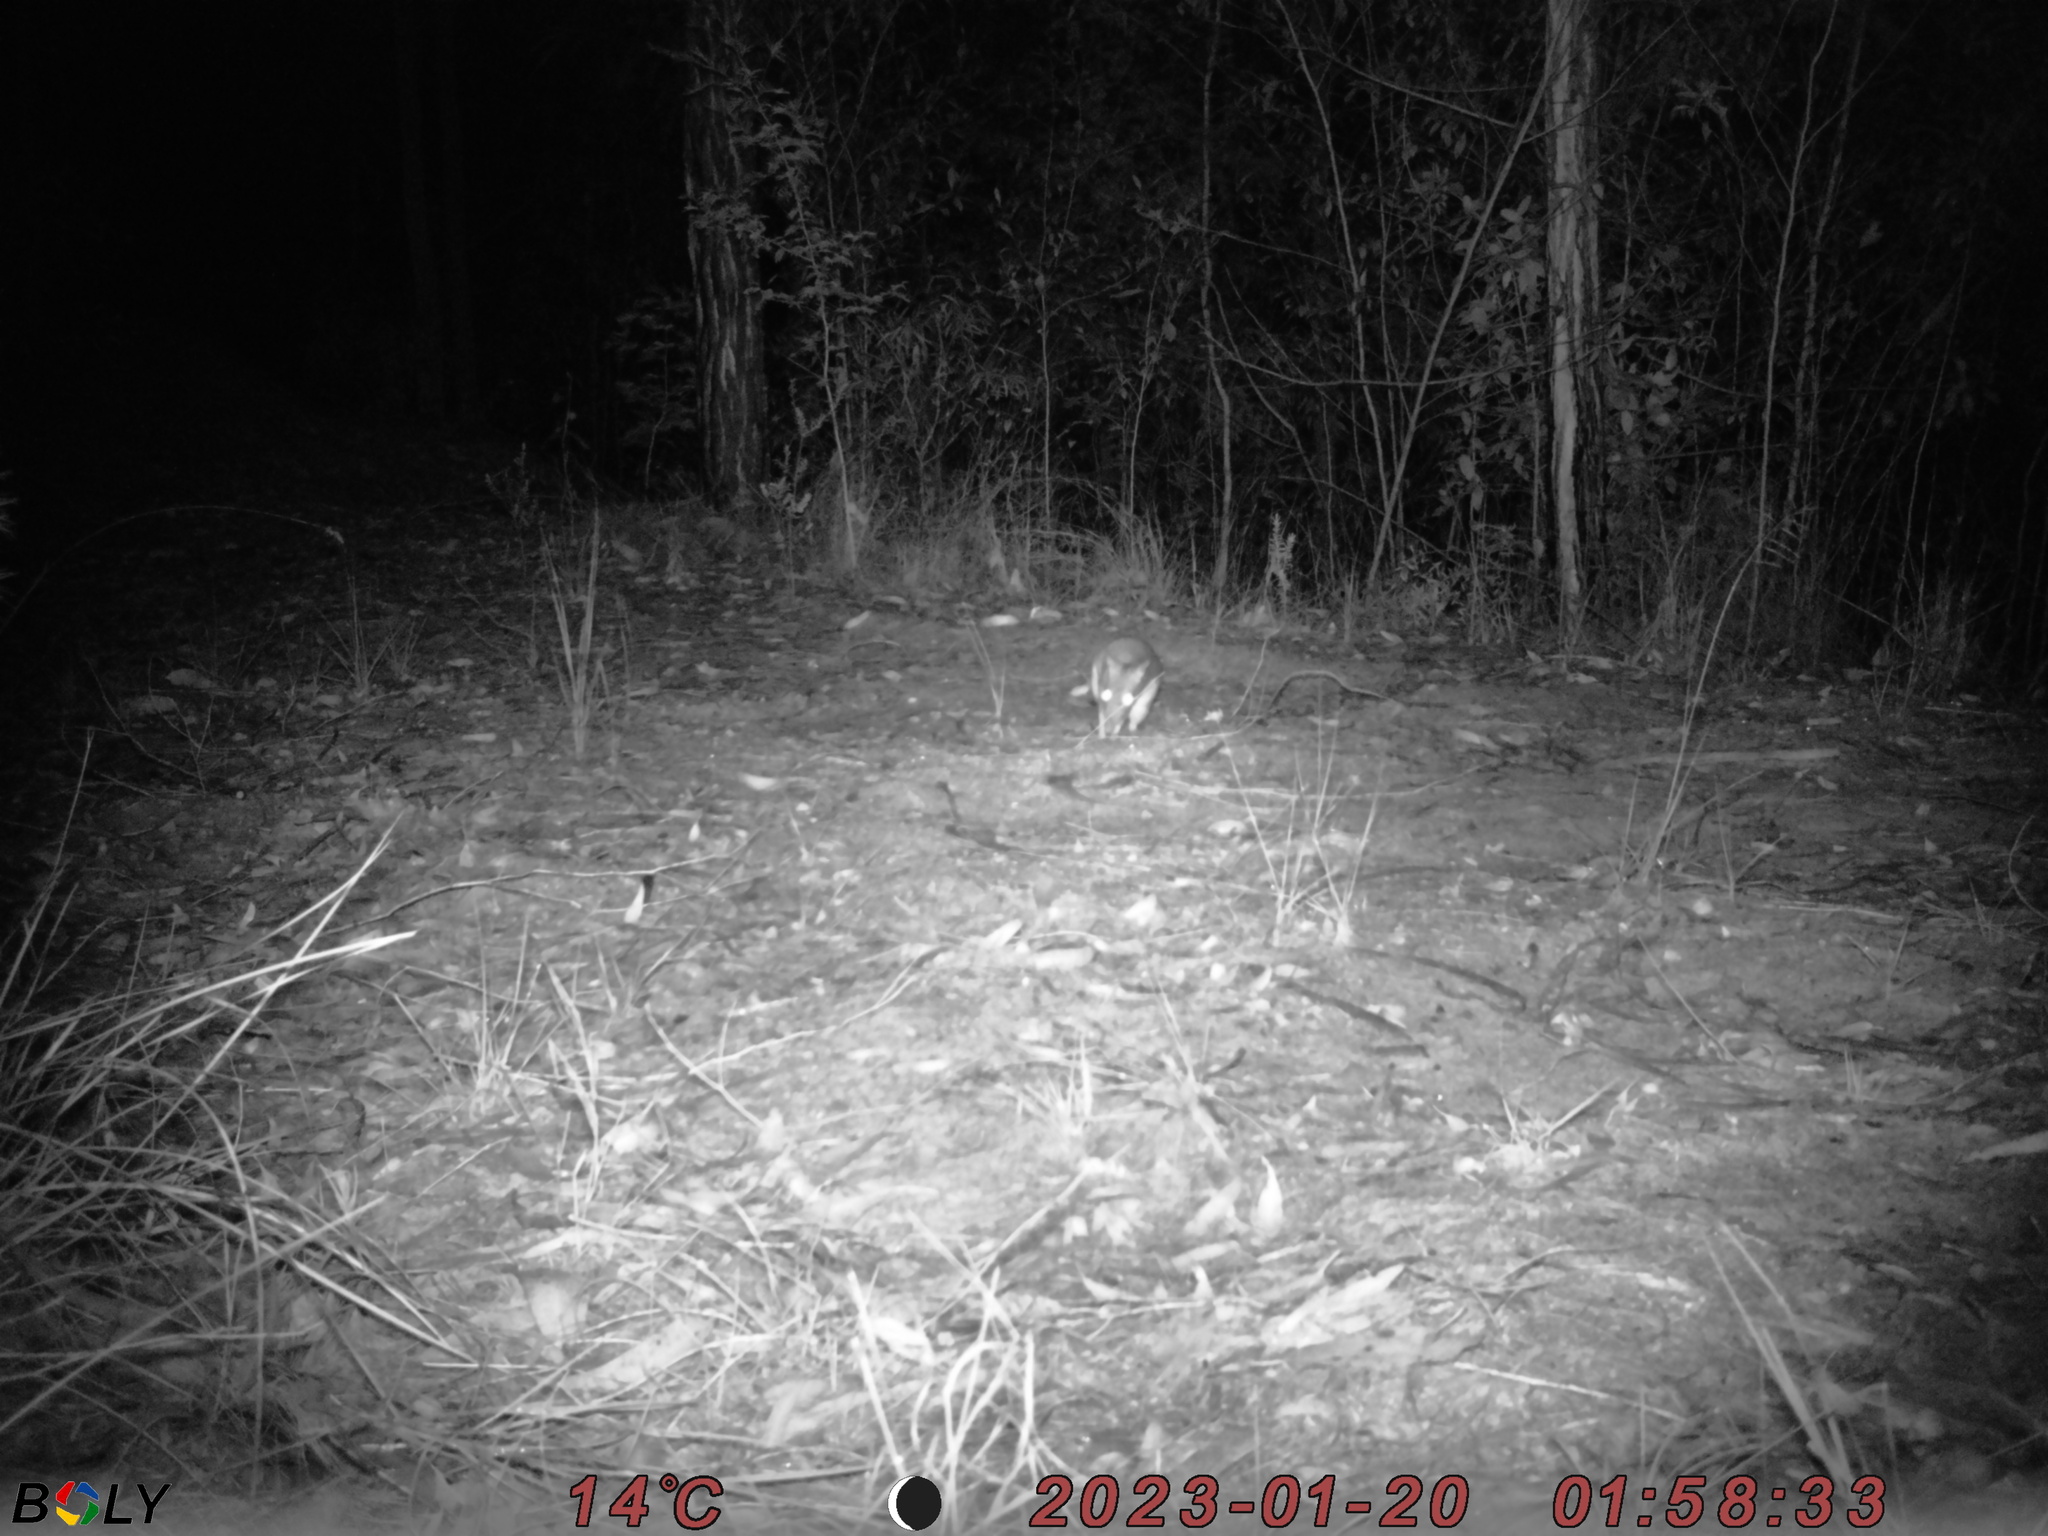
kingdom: Animalia
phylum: Chordata
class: Mammalia
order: Peramelemorphia
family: Peramelidae
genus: Perameles
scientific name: Perameles nasuta
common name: Long-nosed bandicoot
